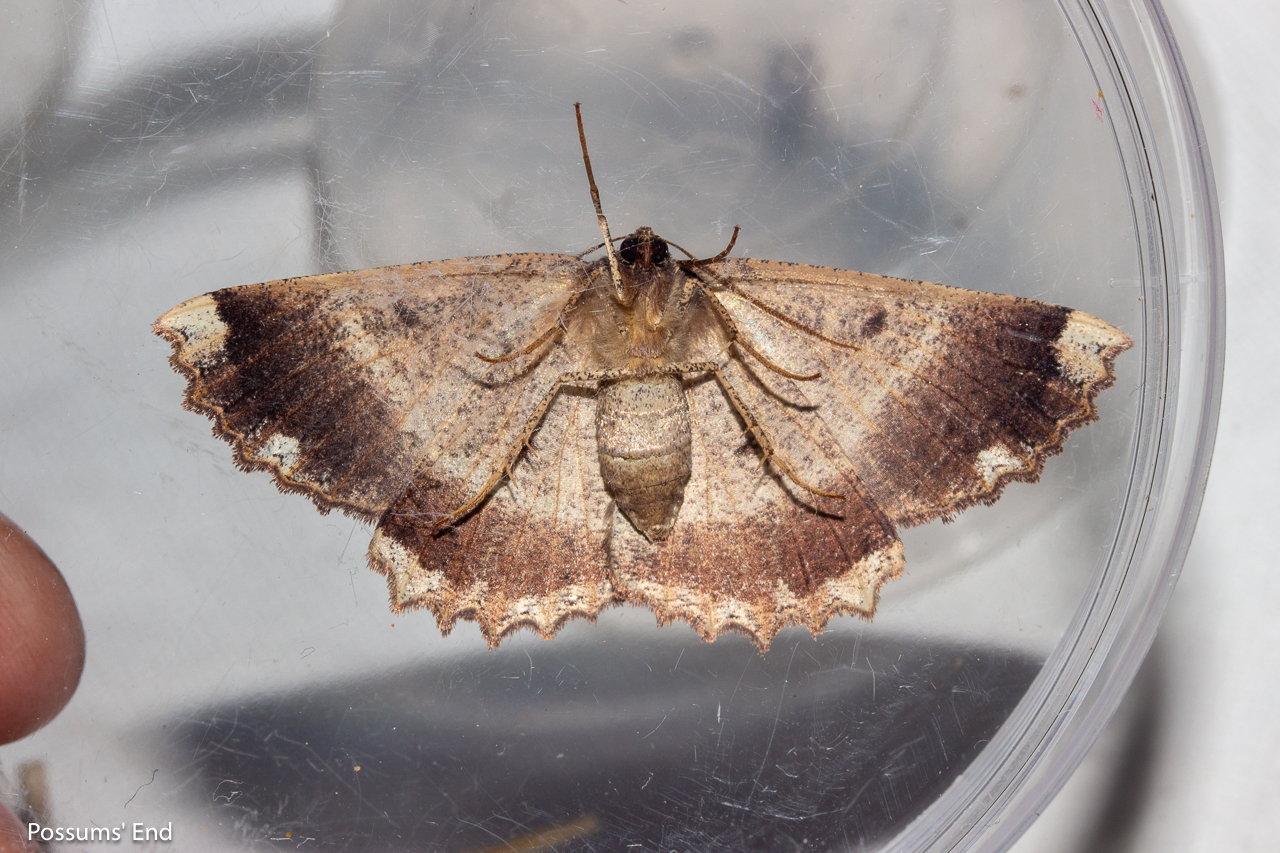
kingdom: Animalia
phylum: Arthropoda
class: Insecta
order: Lepidoptera
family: Geometridae
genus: Gellonia
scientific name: Gellonia dejectaria
